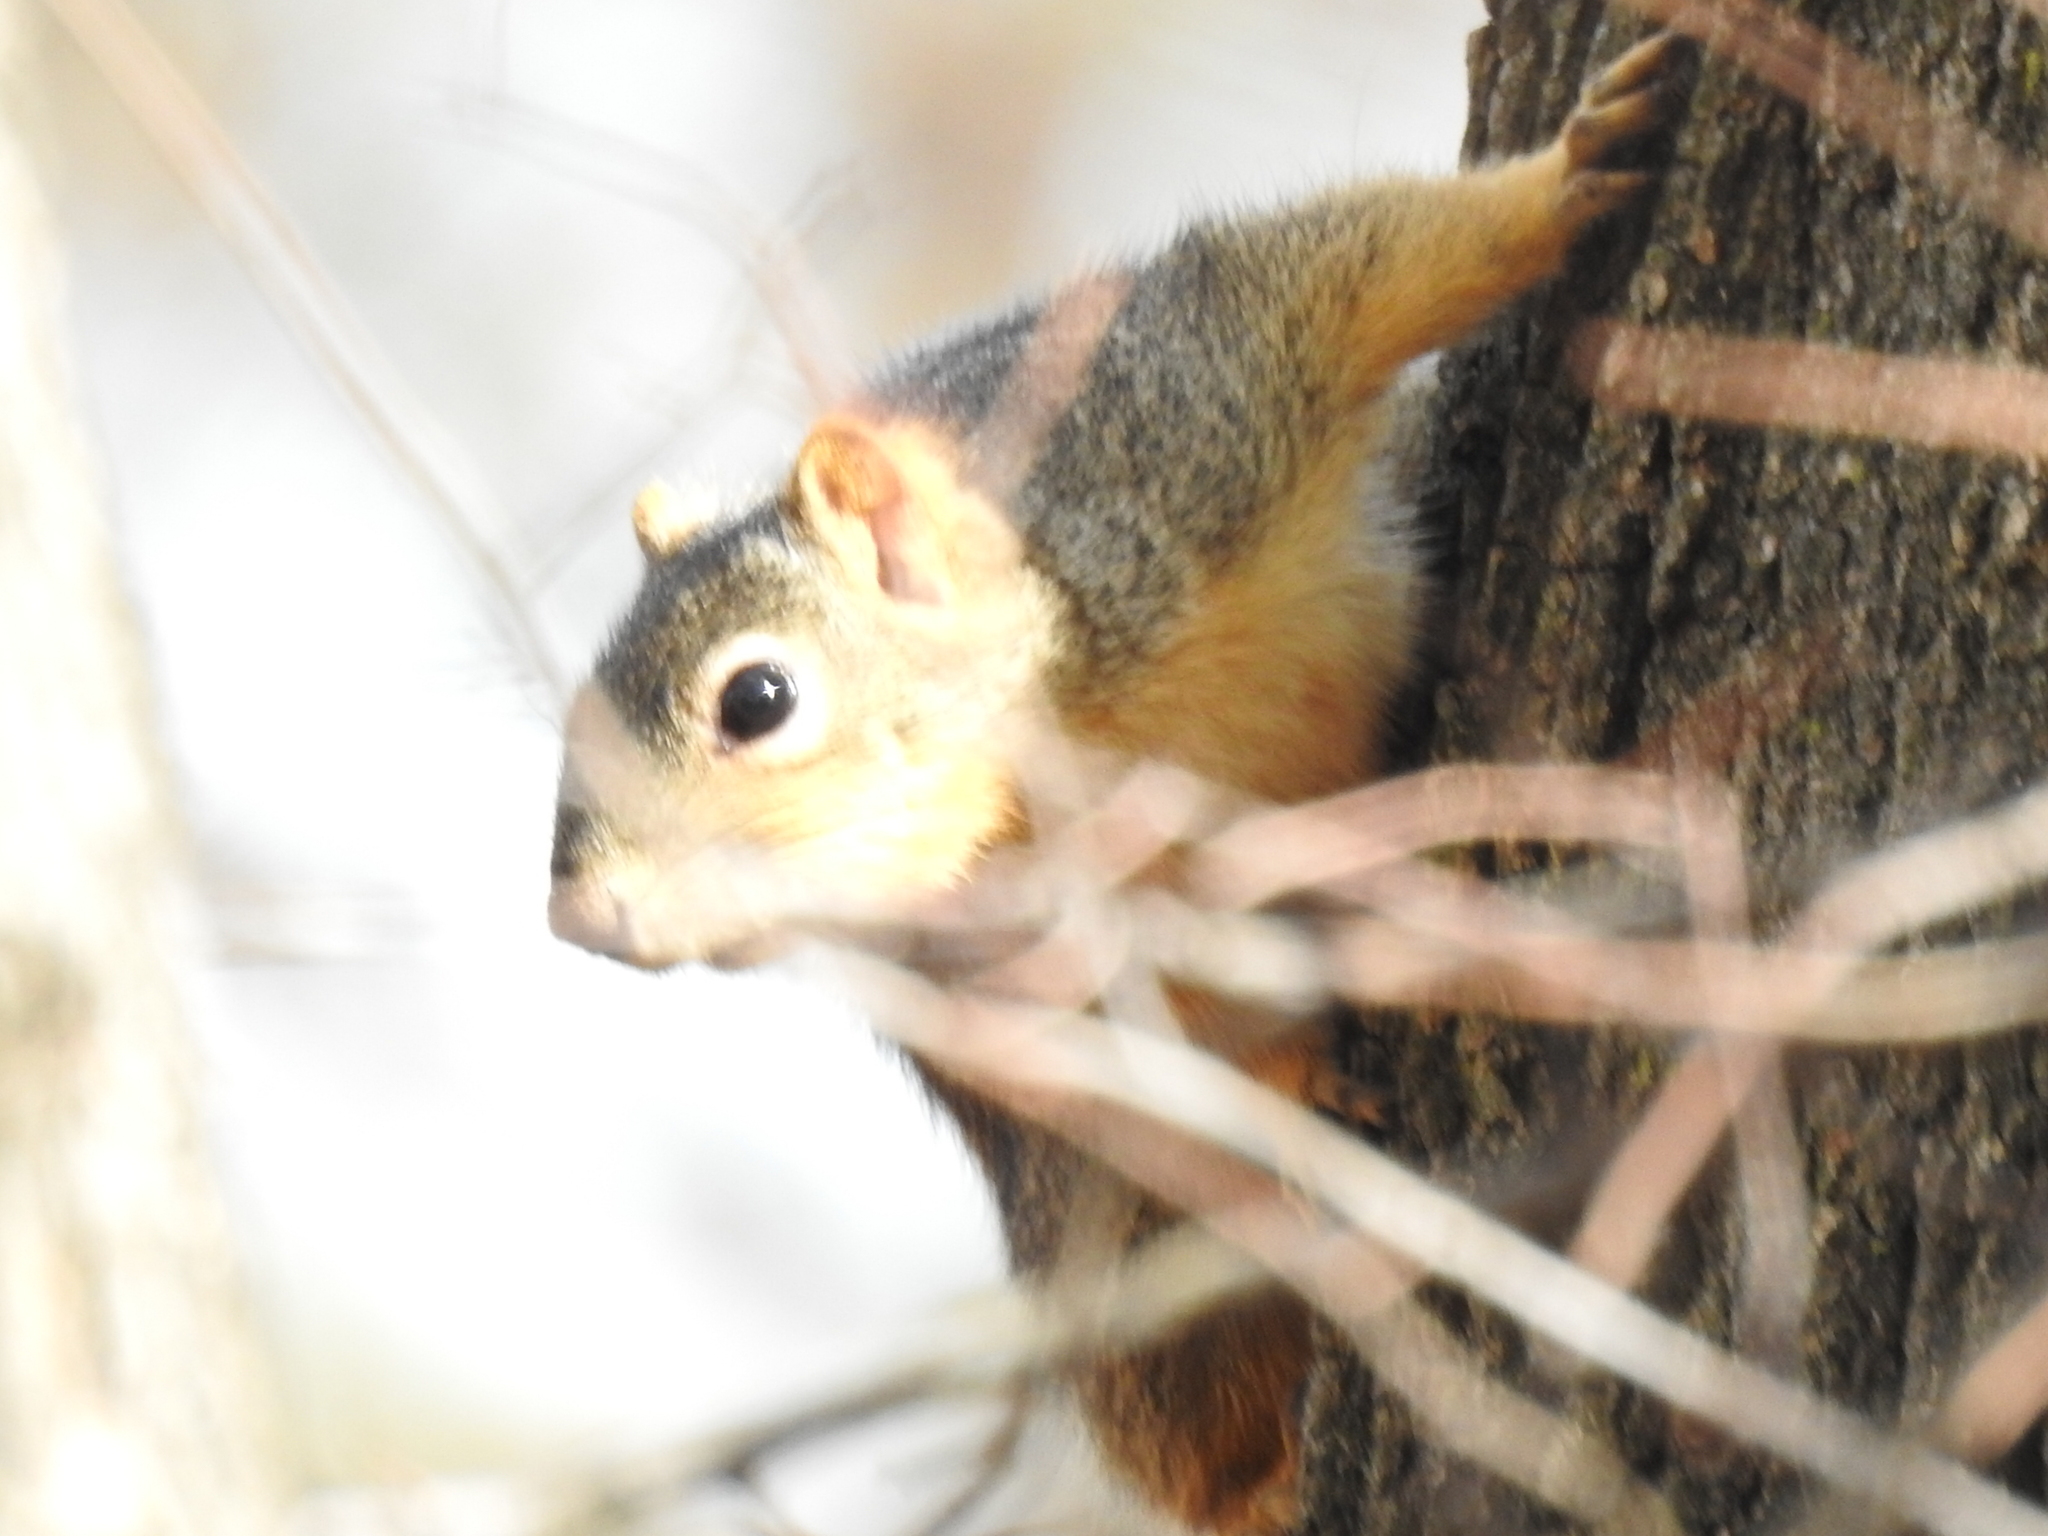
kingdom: Animalia
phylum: Chordata
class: Mammalia
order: Rodentia
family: Sciuridae
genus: Sciurus
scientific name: Sciurus niger
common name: Fox squirrel
